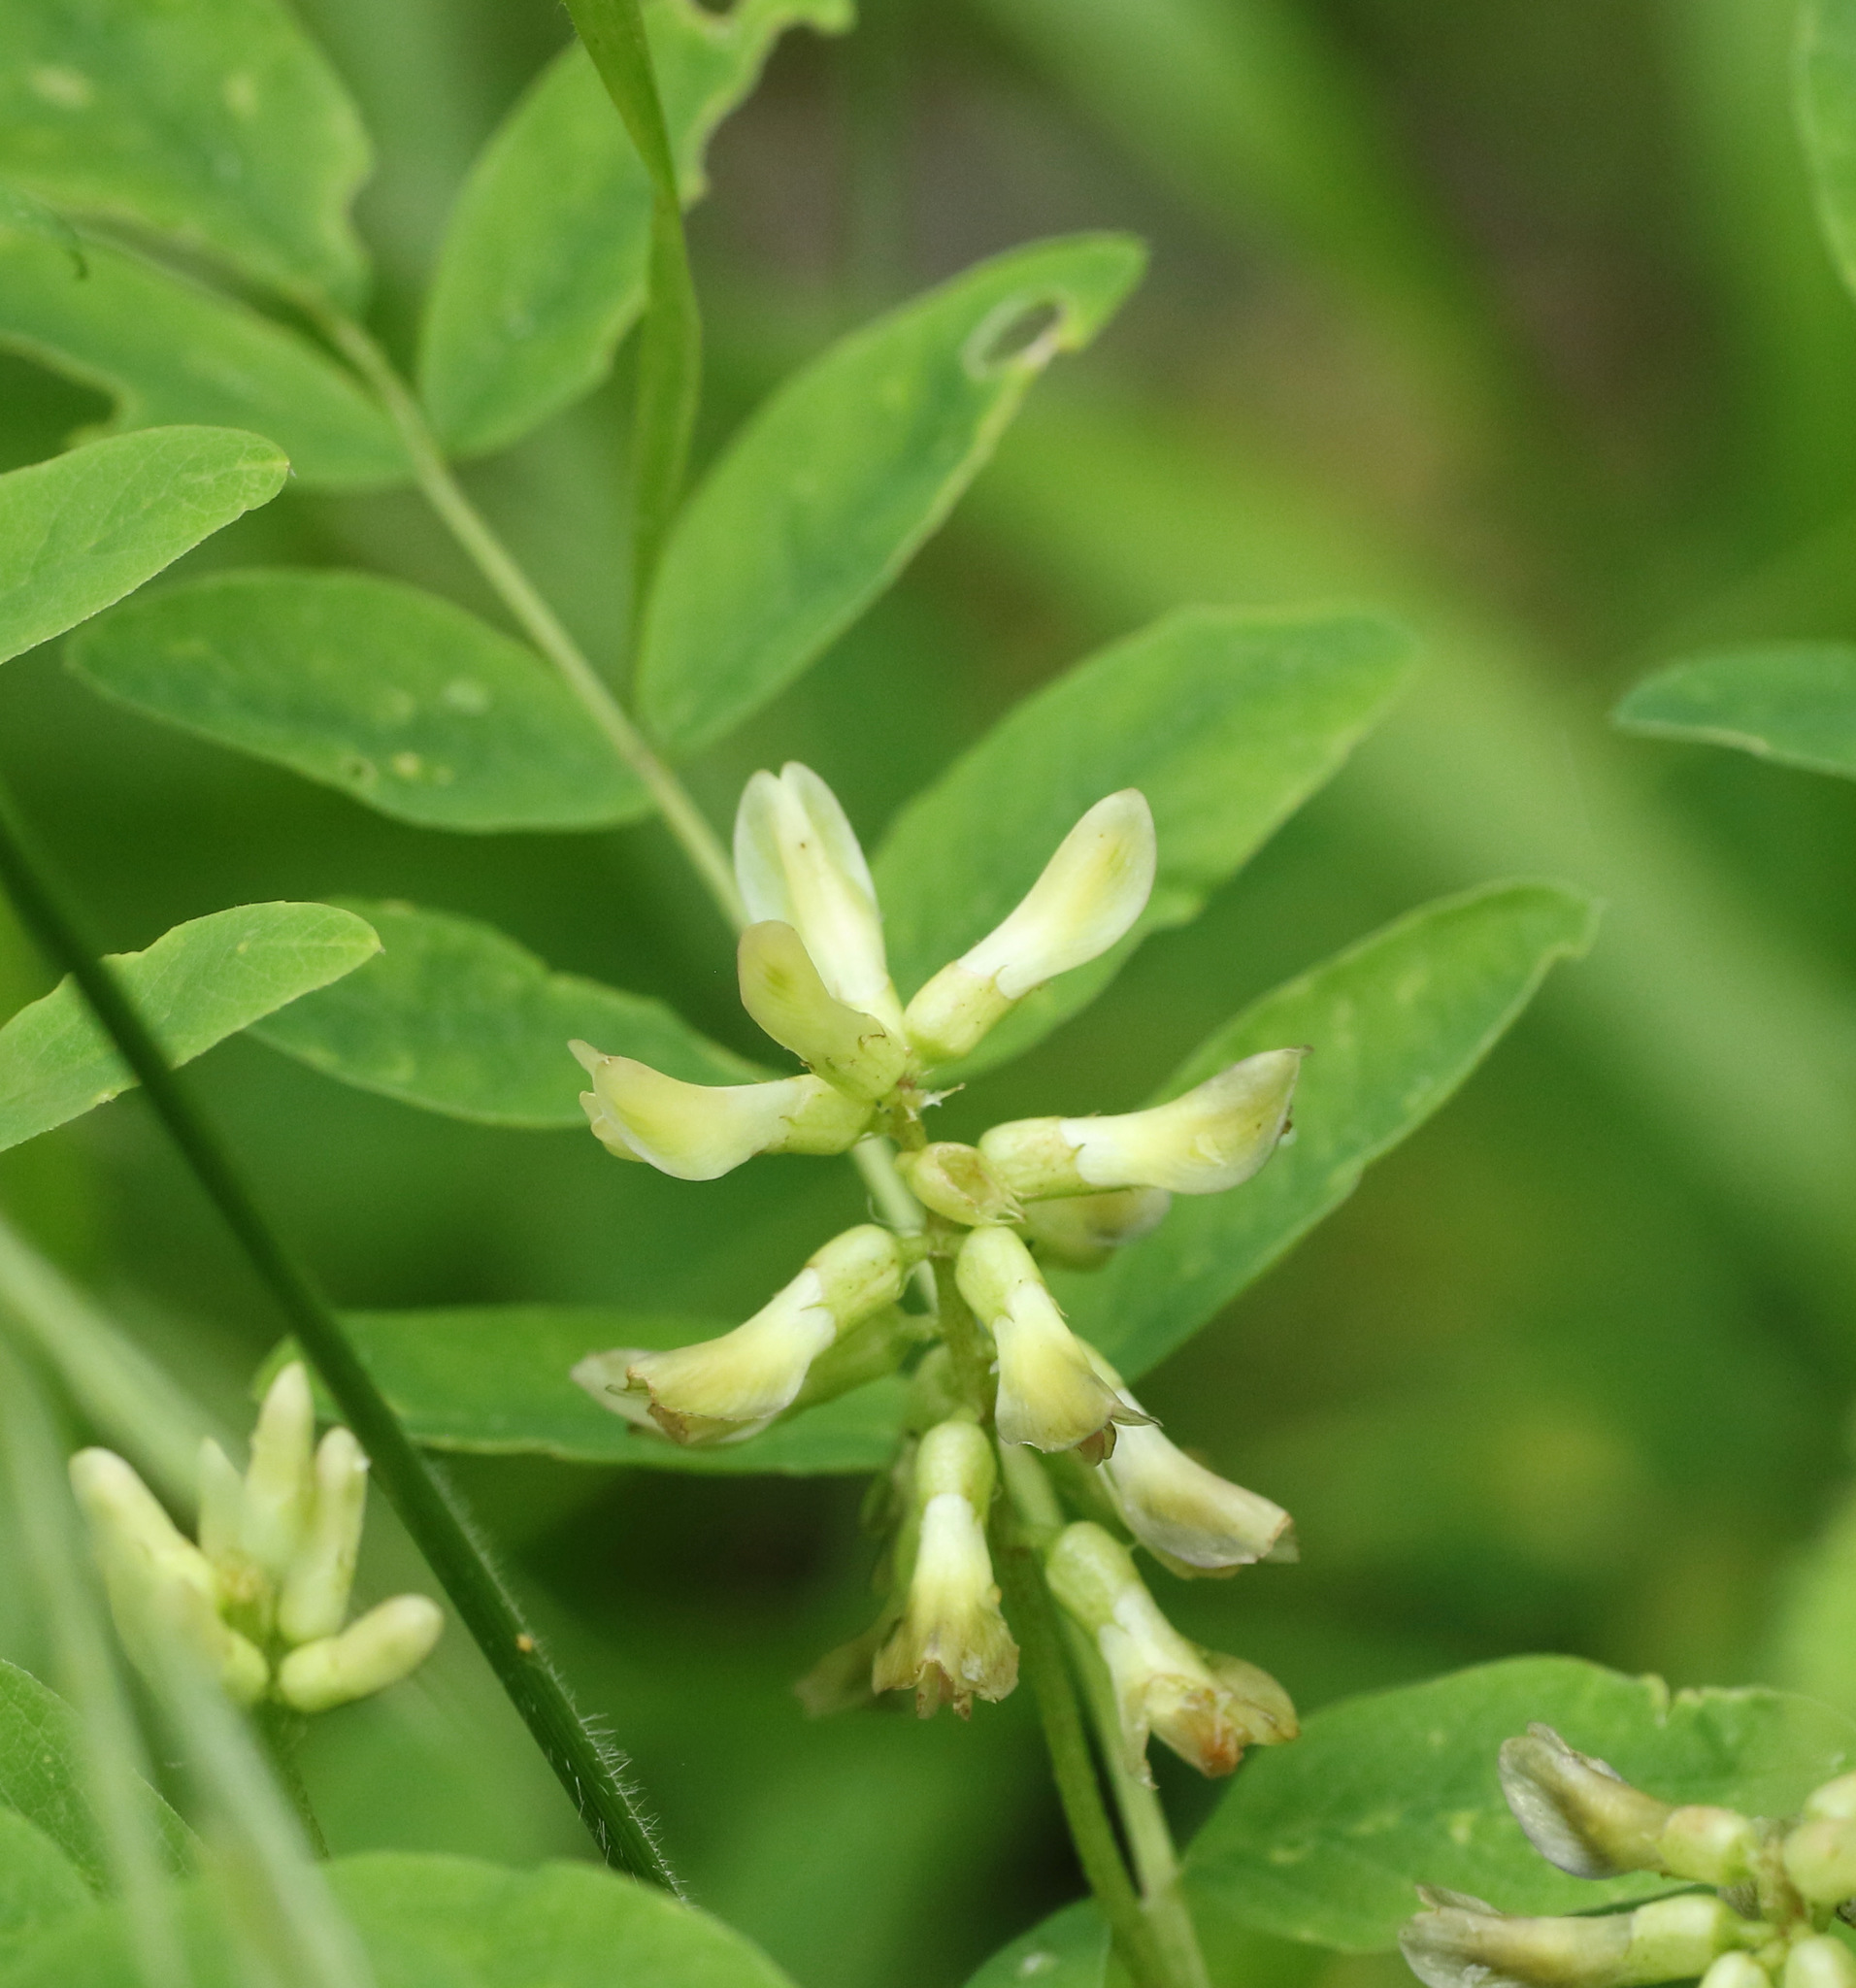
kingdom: Plantae
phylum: Tracheophyta
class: Magnoliopsida
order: Fabales
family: Fabaceae
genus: Astragalus
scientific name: Astragalus glycyphyllos
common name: Wild liquorice
